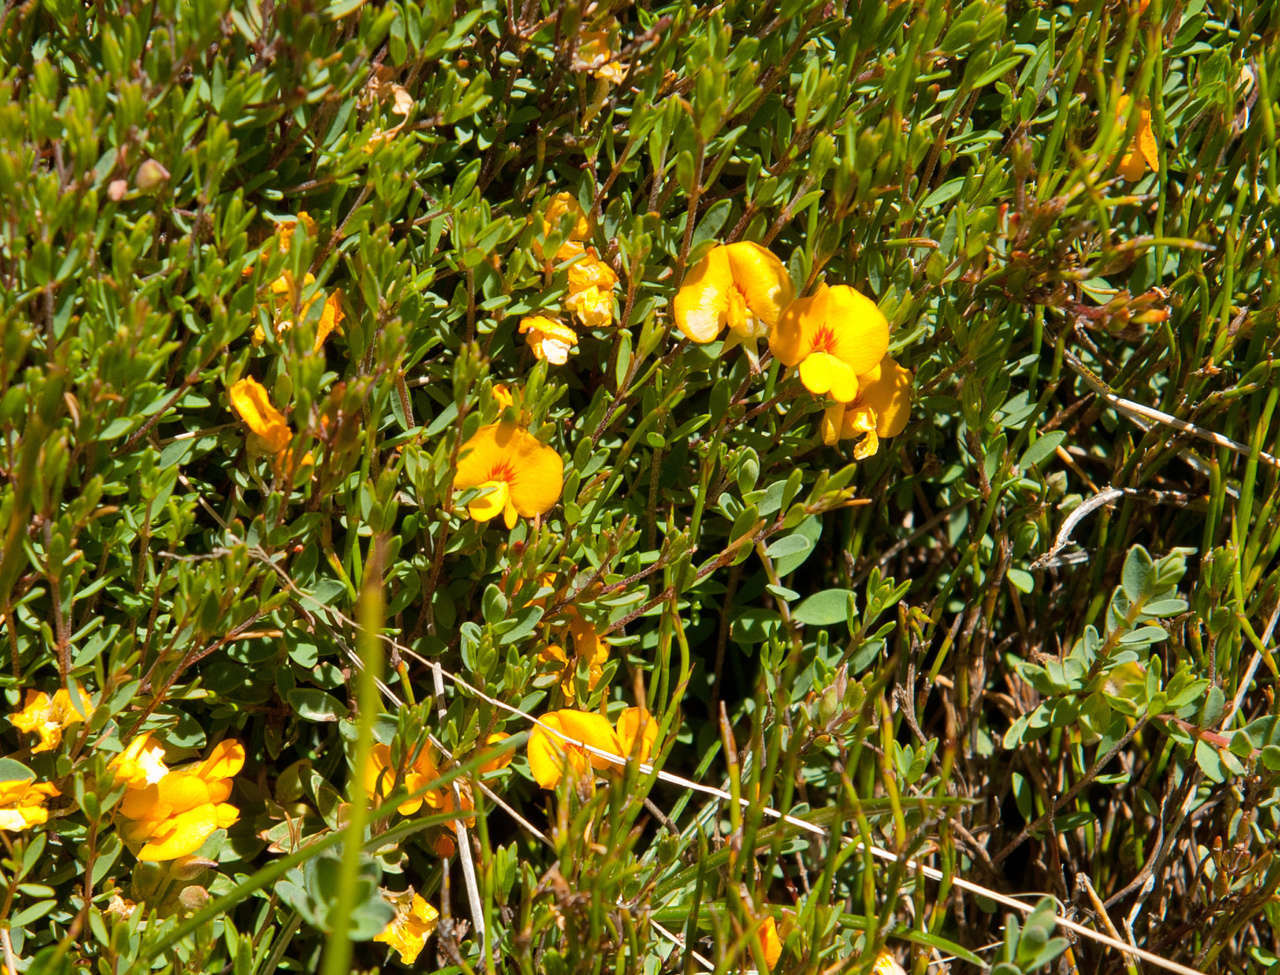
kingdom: Plantae
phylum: Tracheophyta
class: Magnoliopsida
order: Fabales
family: Fabaceae
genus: Pultenaea
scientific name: Pultenaea tenella
